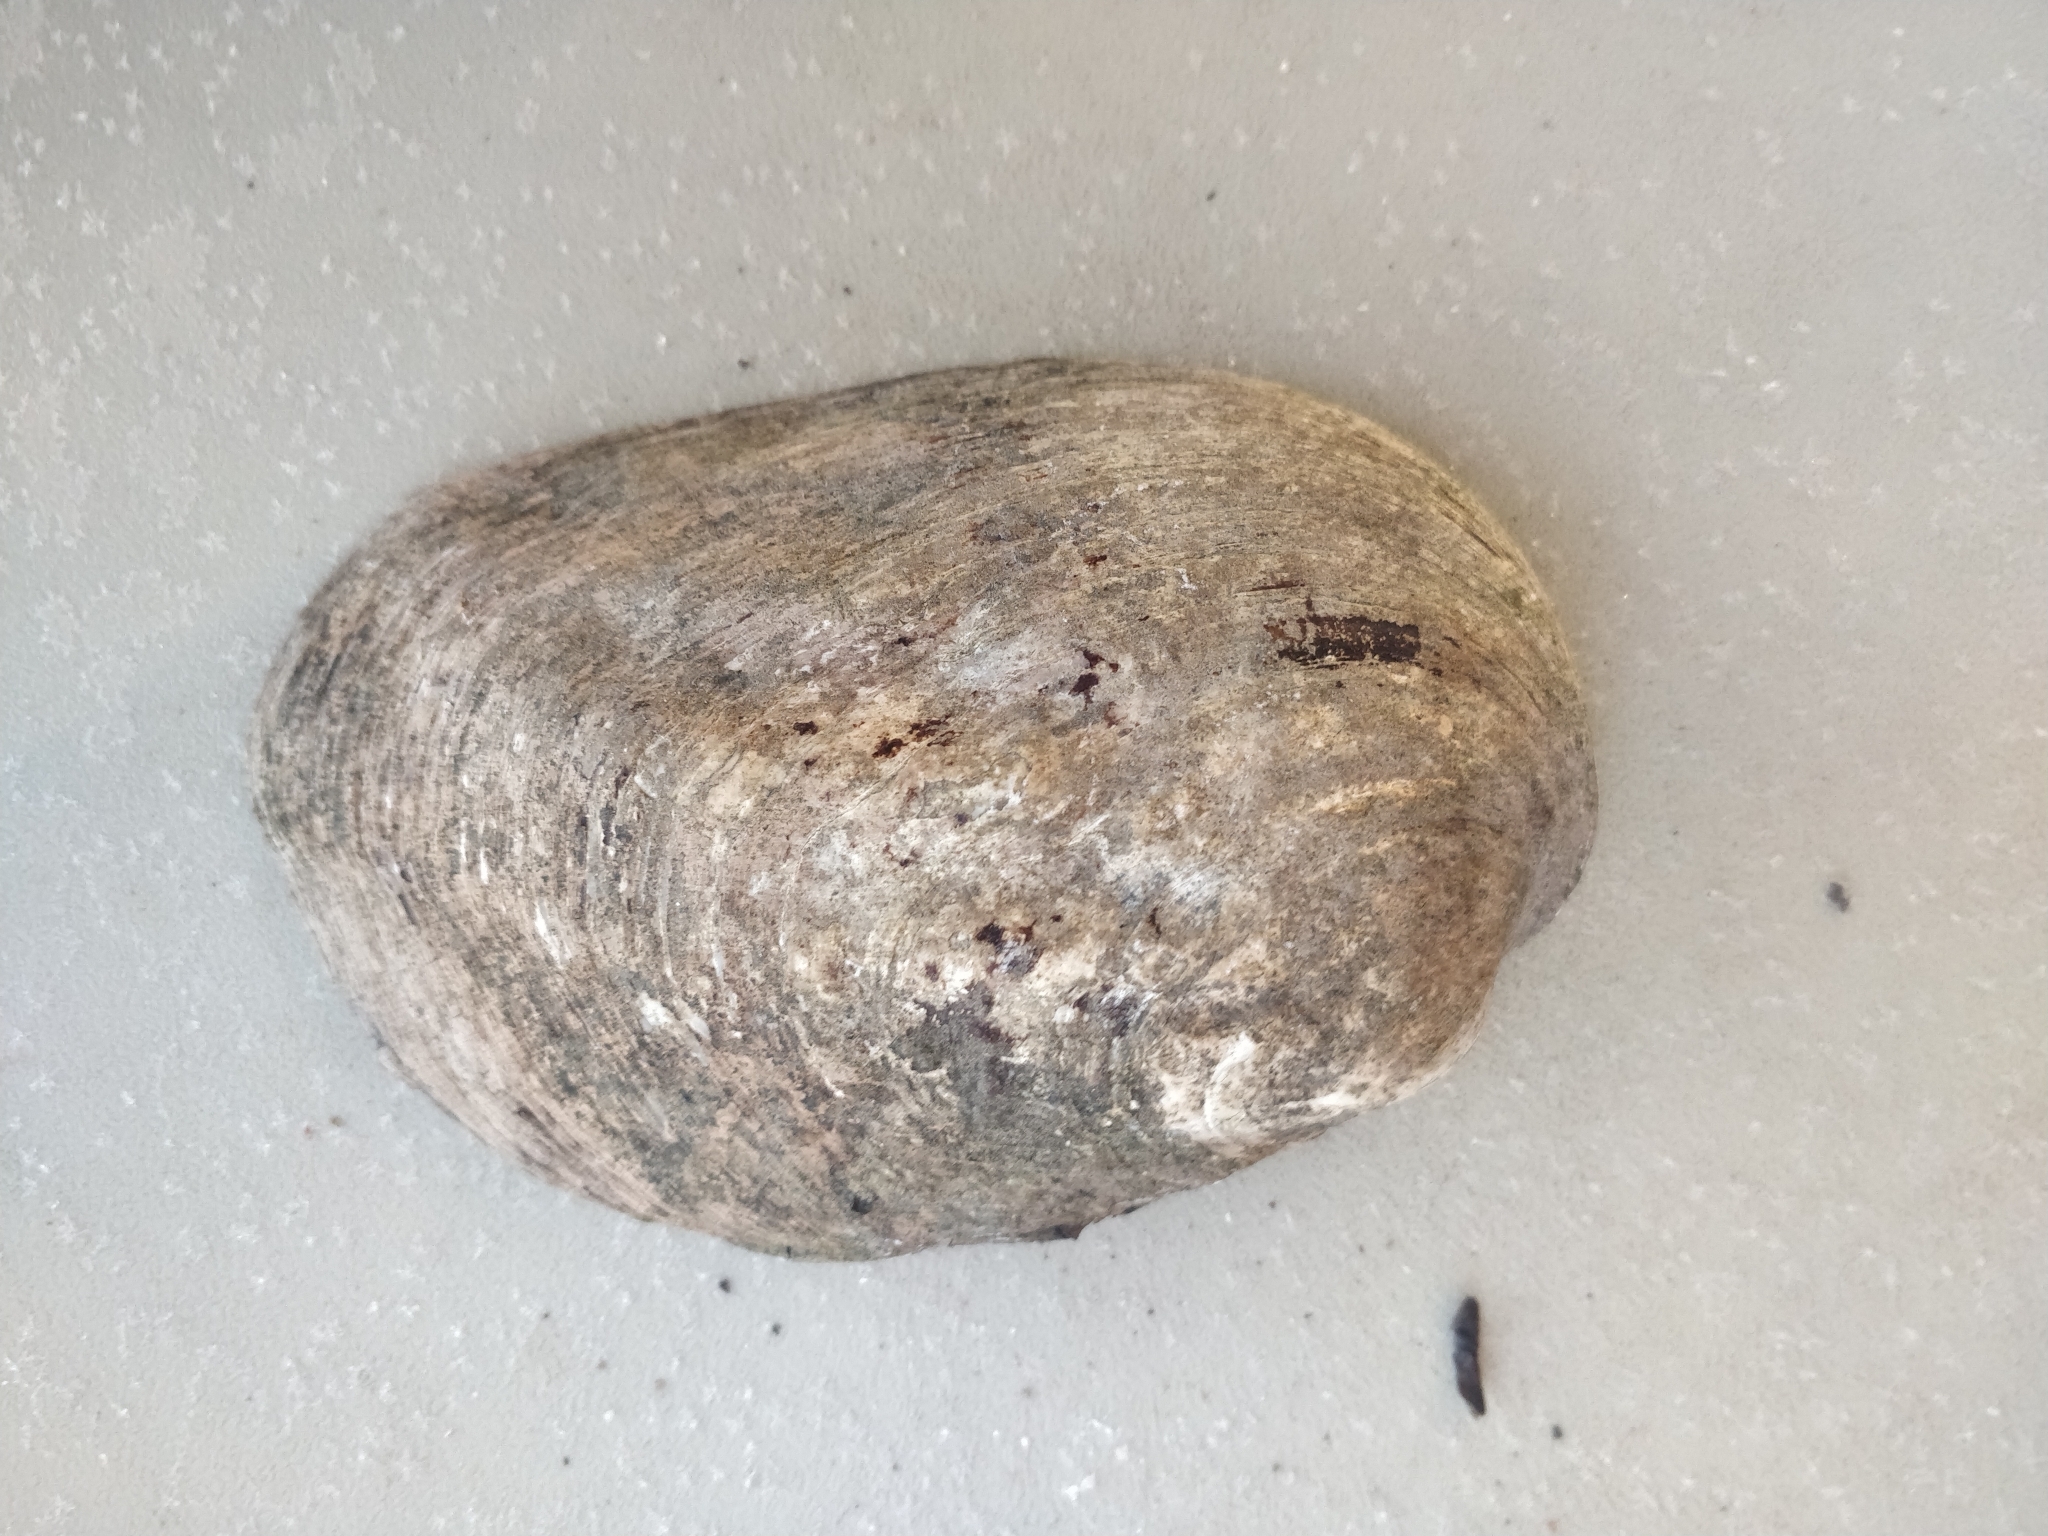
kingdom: Animalia
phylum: Mollusca
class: Bivalvia
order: Unionida
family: Unionidae
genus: Amblema
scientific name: Amblema plicata
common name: Threeridge
